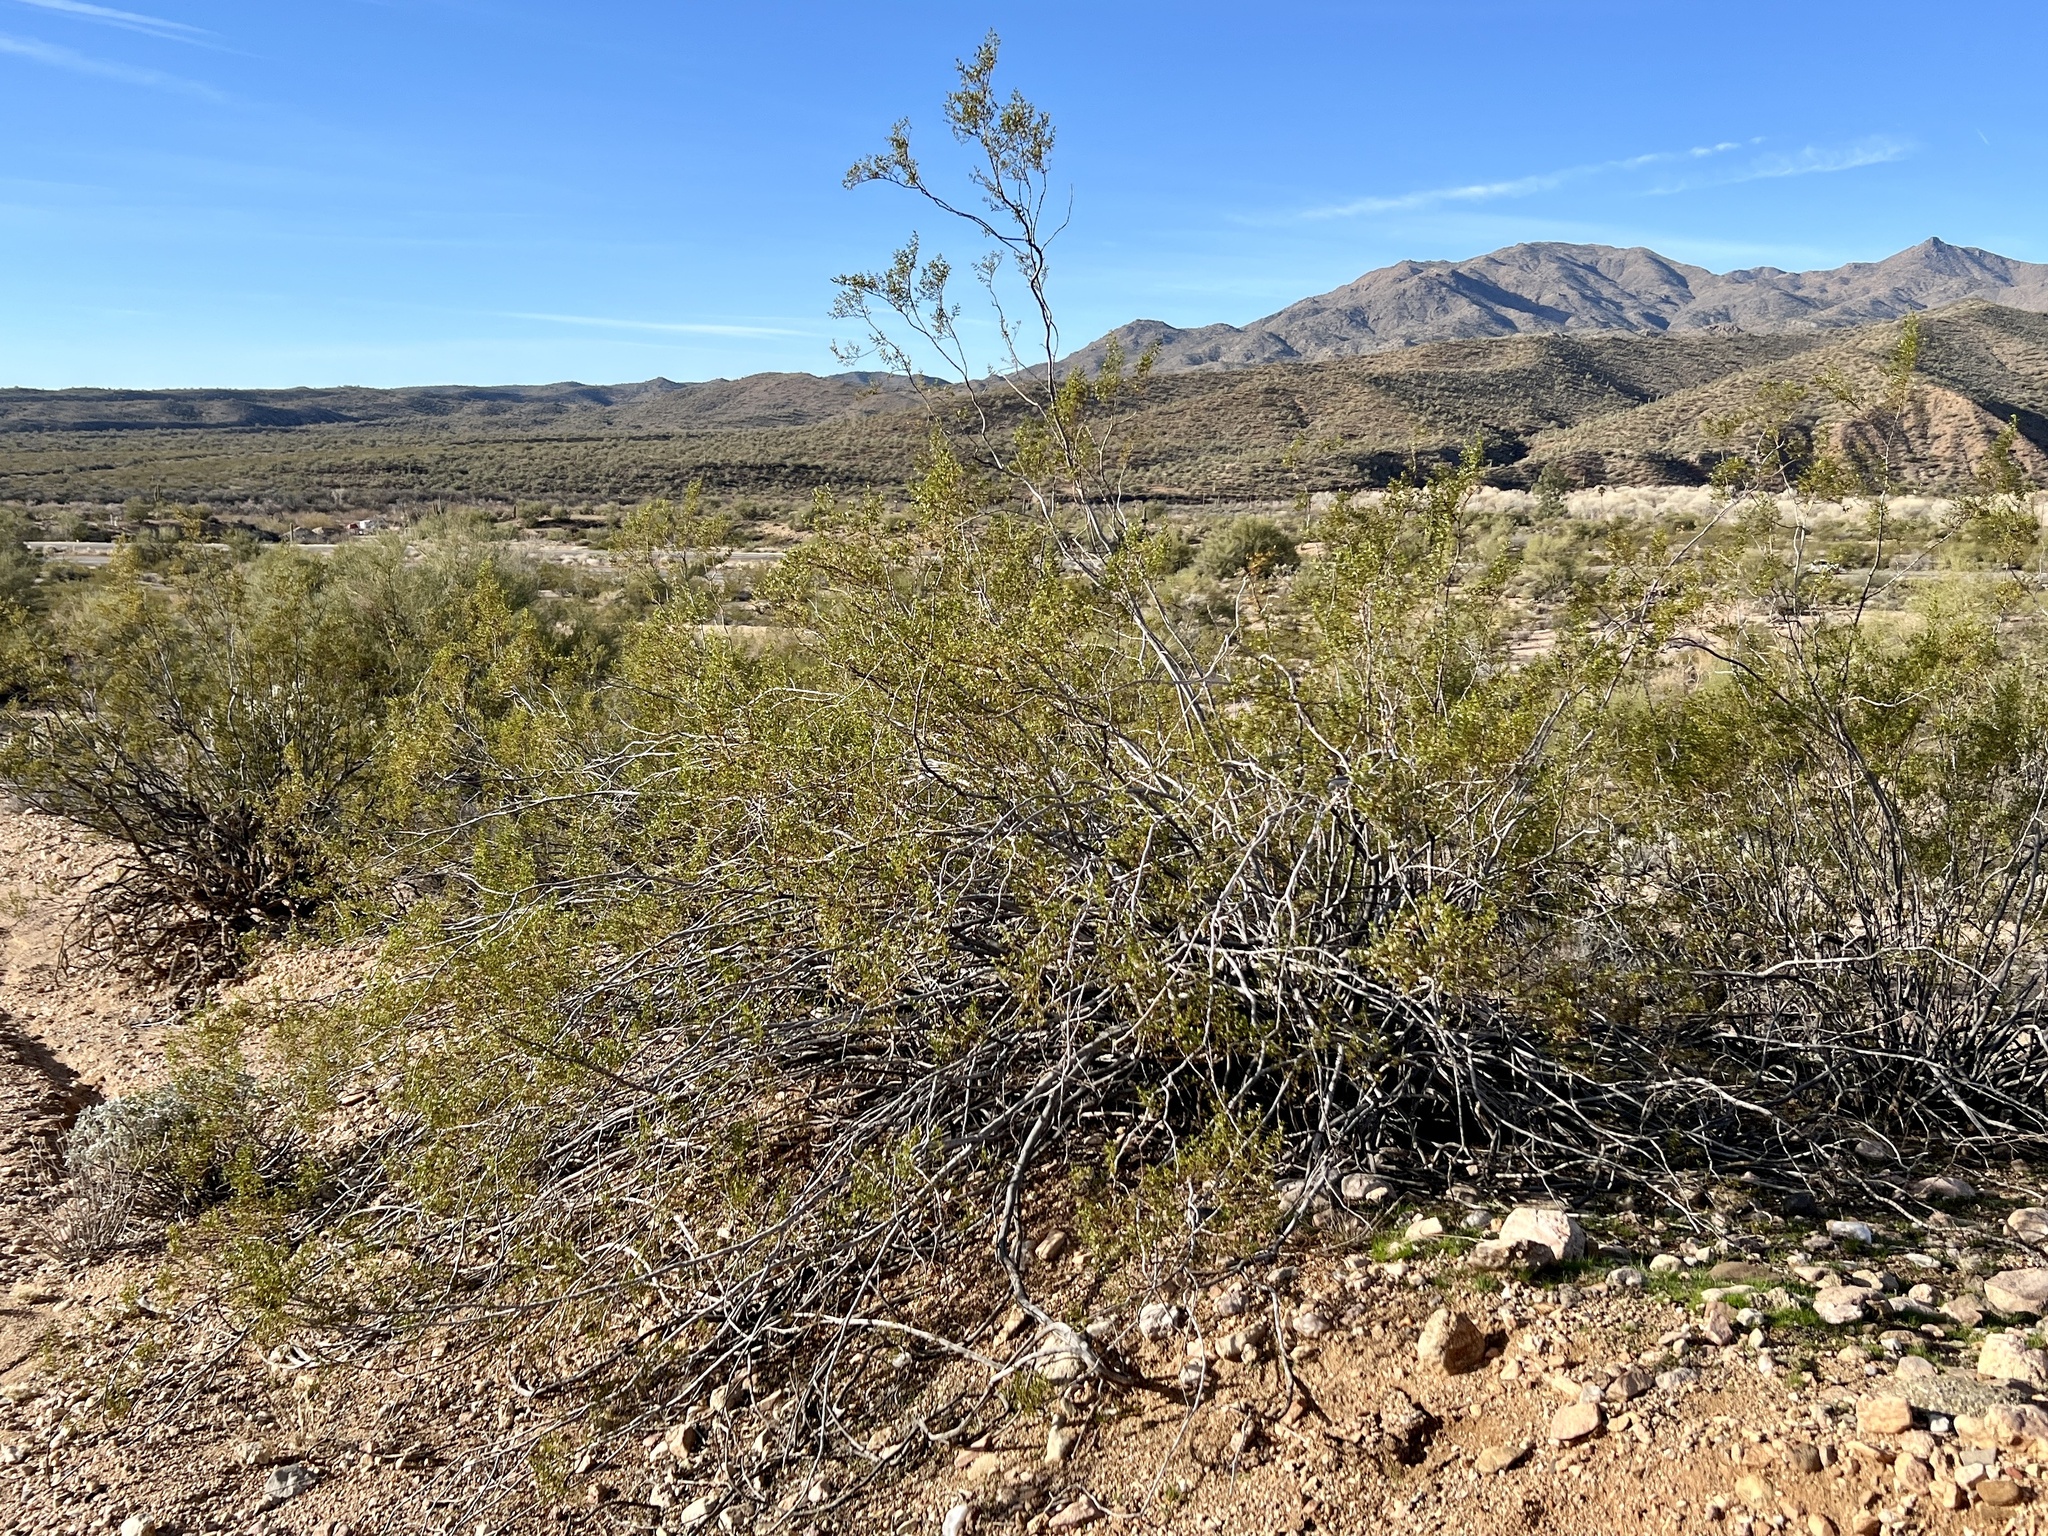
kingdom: Plantae
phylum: Tracheophyta
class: Magnoliopsida
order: Zygophyllales
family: Zygophyllaceae
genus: Larrea
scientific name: Larrea tridentata
